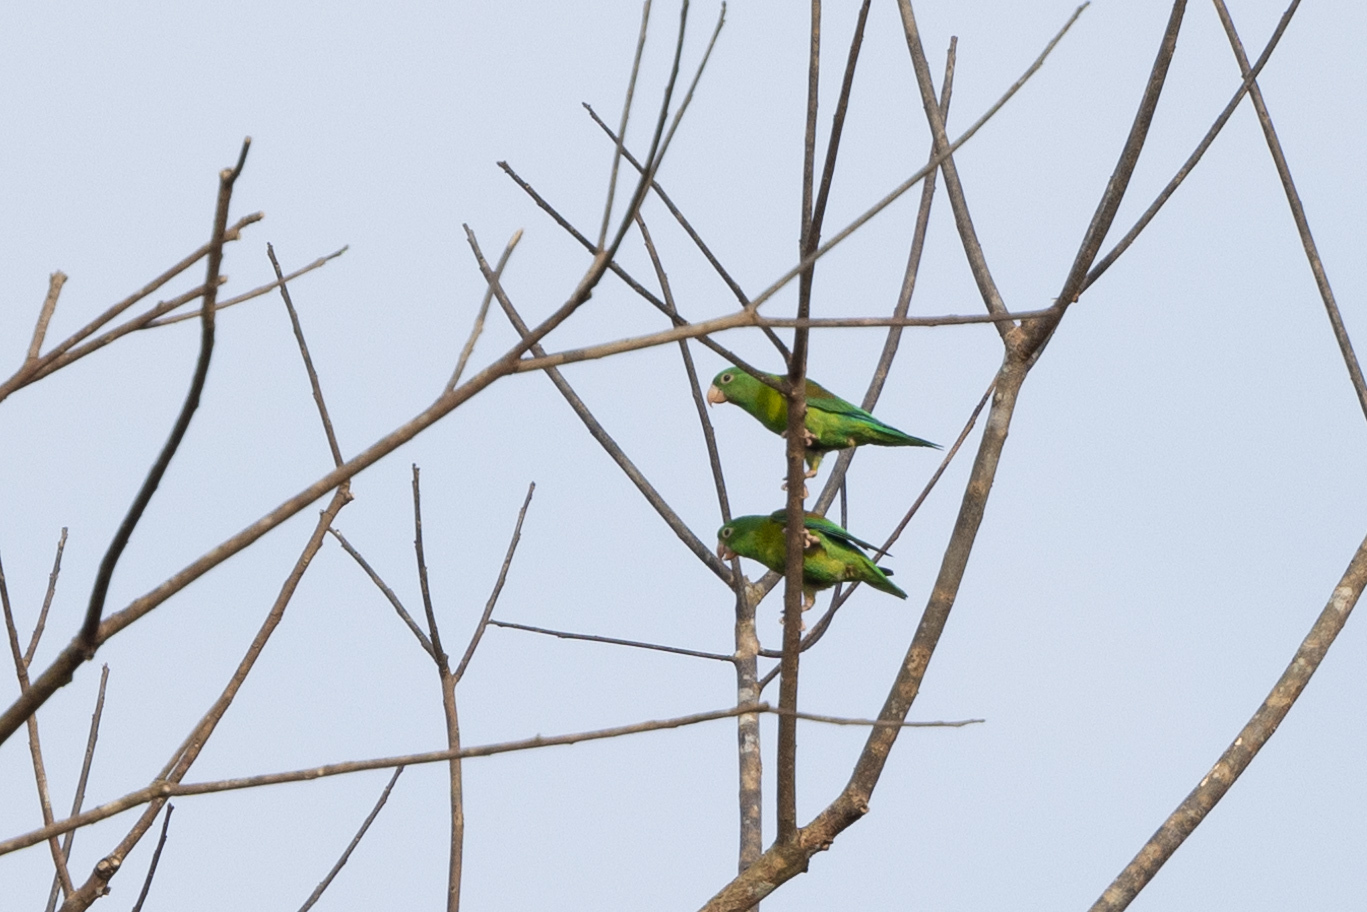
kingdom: Animalia
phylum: Chordata
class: Aves
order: Psittaciformes
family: Psittacidae
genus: Brotogeris
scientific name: Brotogeris jugularis
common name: Orange-chinned parakeet
